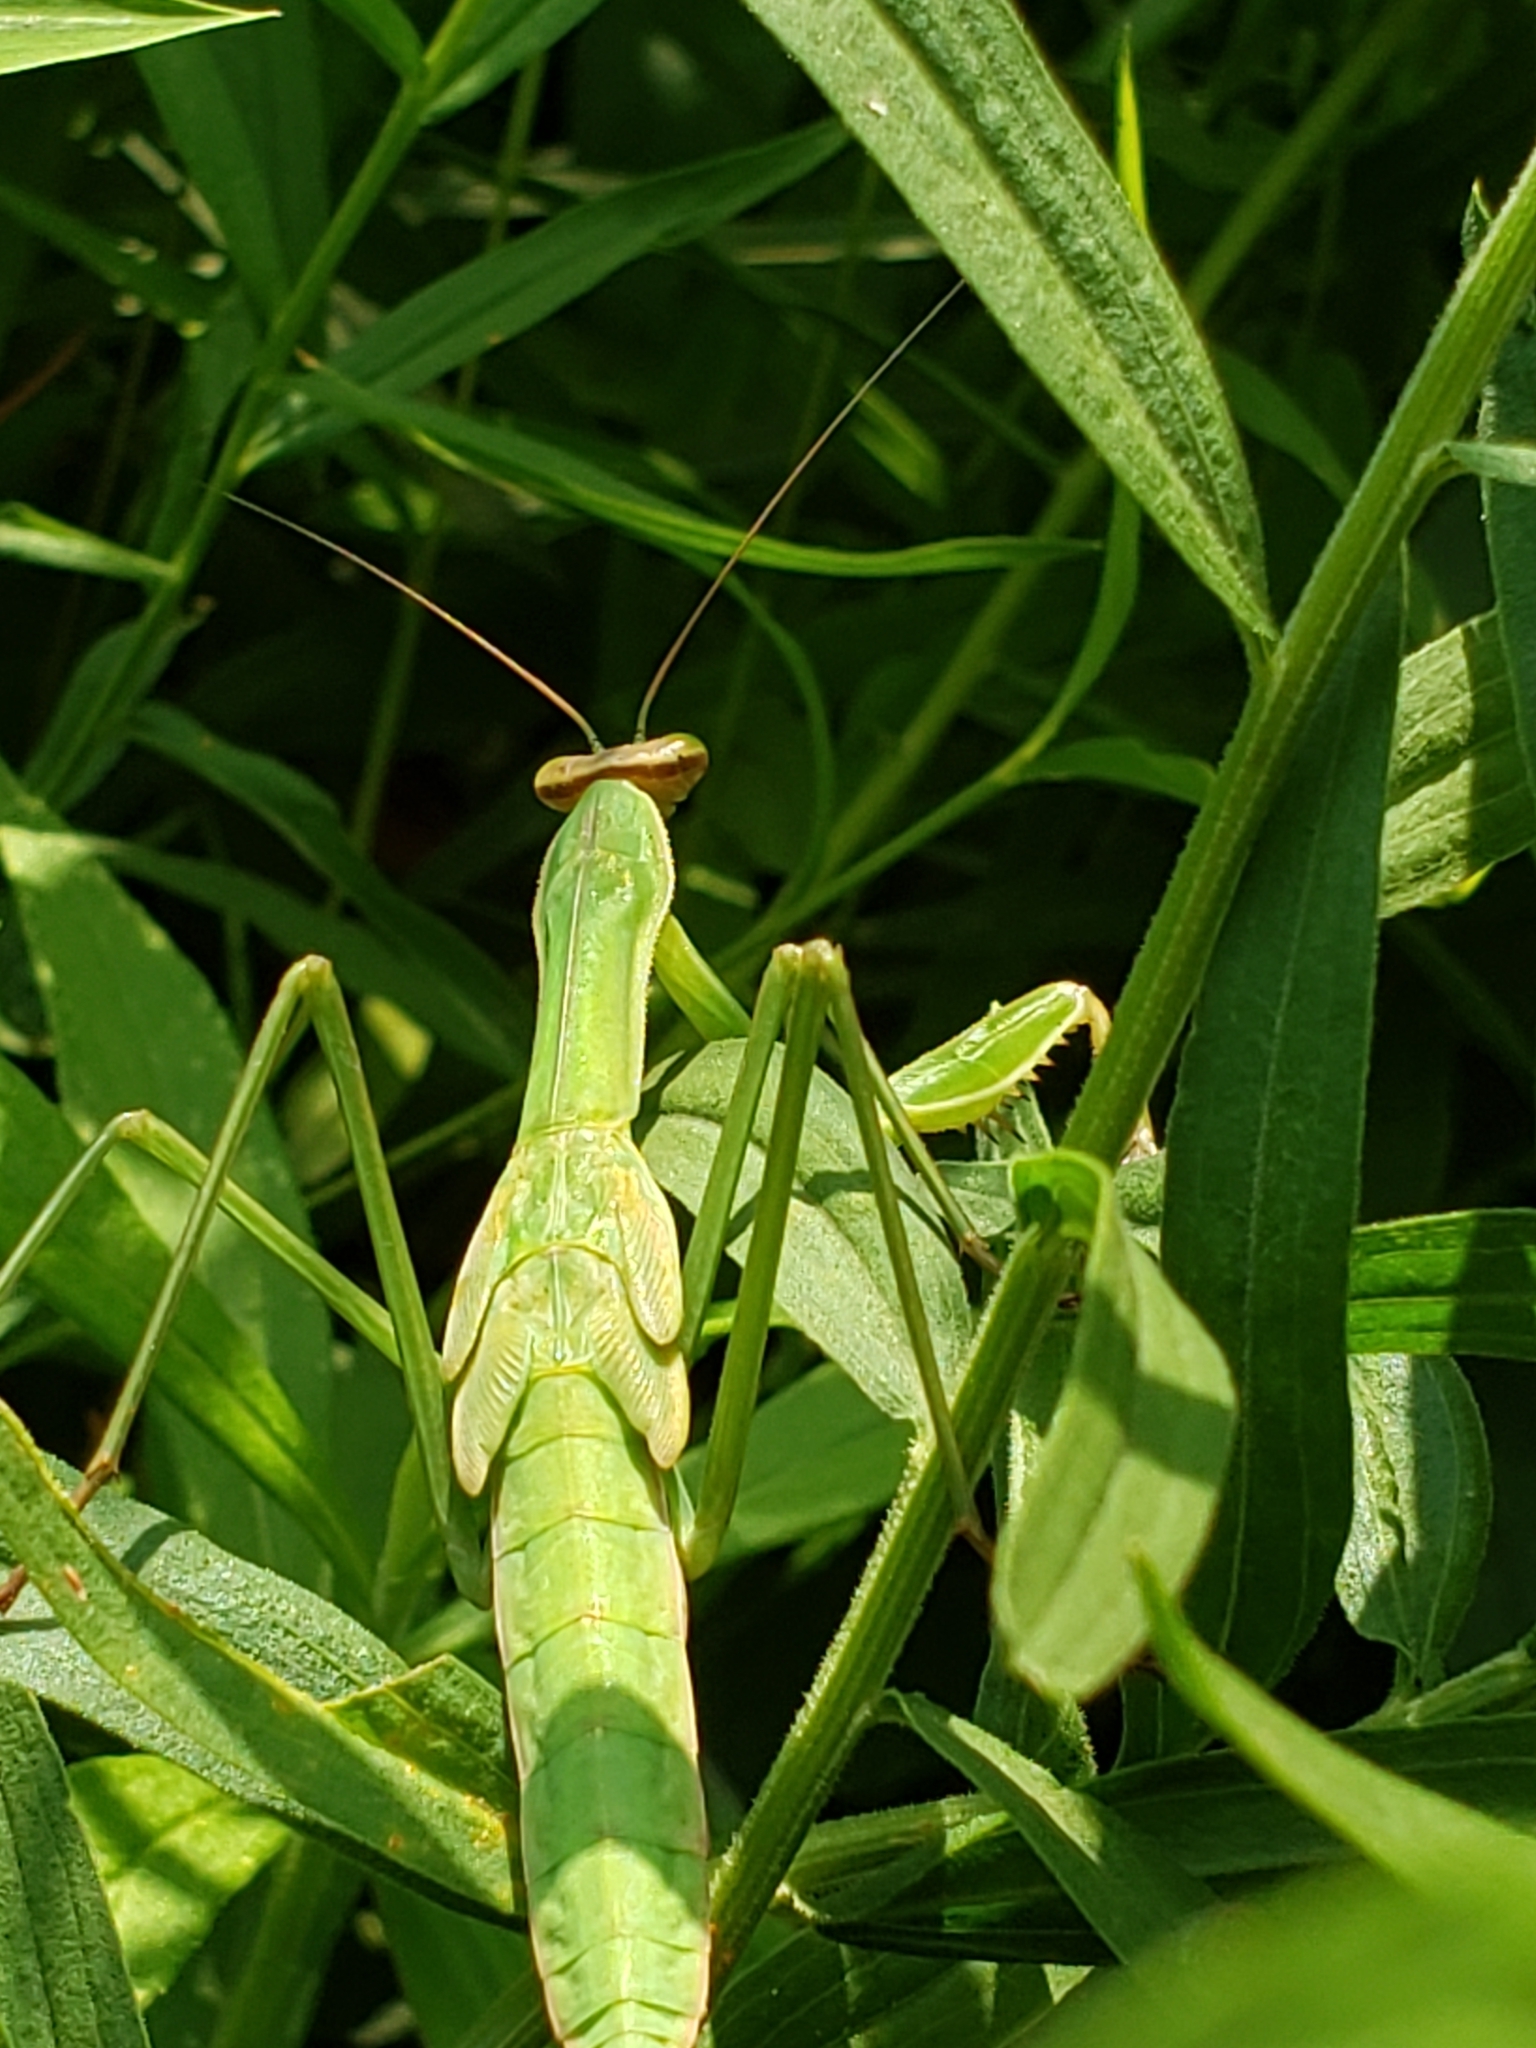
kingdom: Animalia
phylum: Arthropoda
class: Insecta
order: Mantodea
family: Mantidae
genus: Tenodera
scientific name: Tenodera sinensis
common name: Chinese mantis
